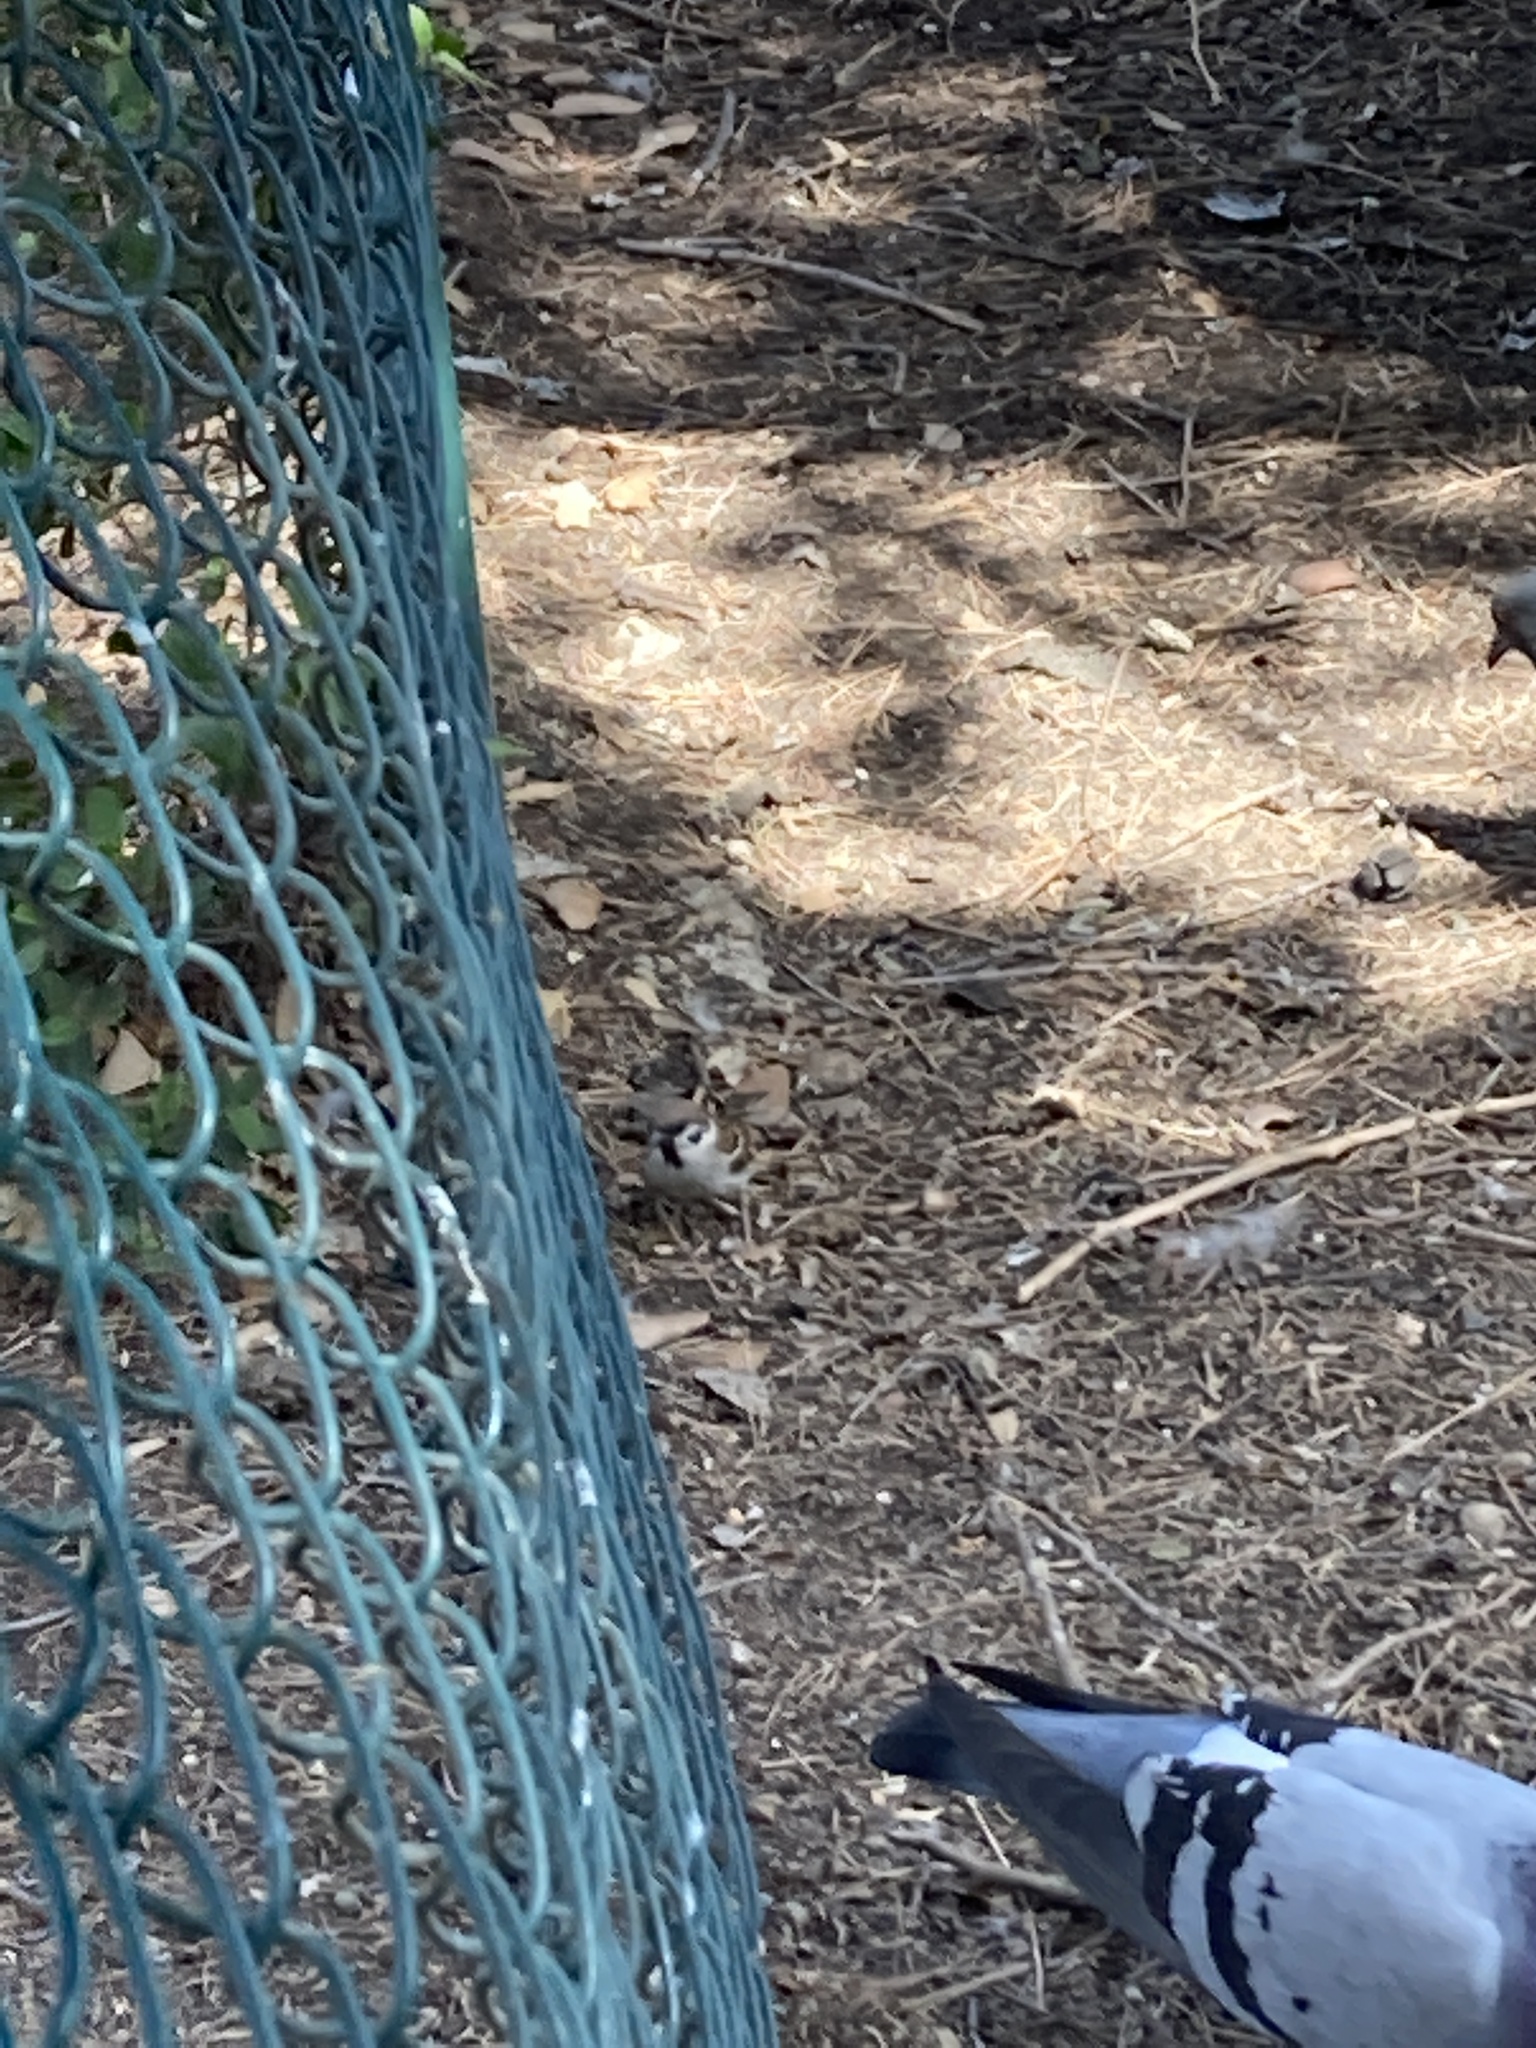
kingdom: Animalia
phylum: Chordata
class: Aves
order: Passeriformes
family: Passeridae
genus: Passer
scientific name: Passer montanus
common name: Eurasian tree sparrow
